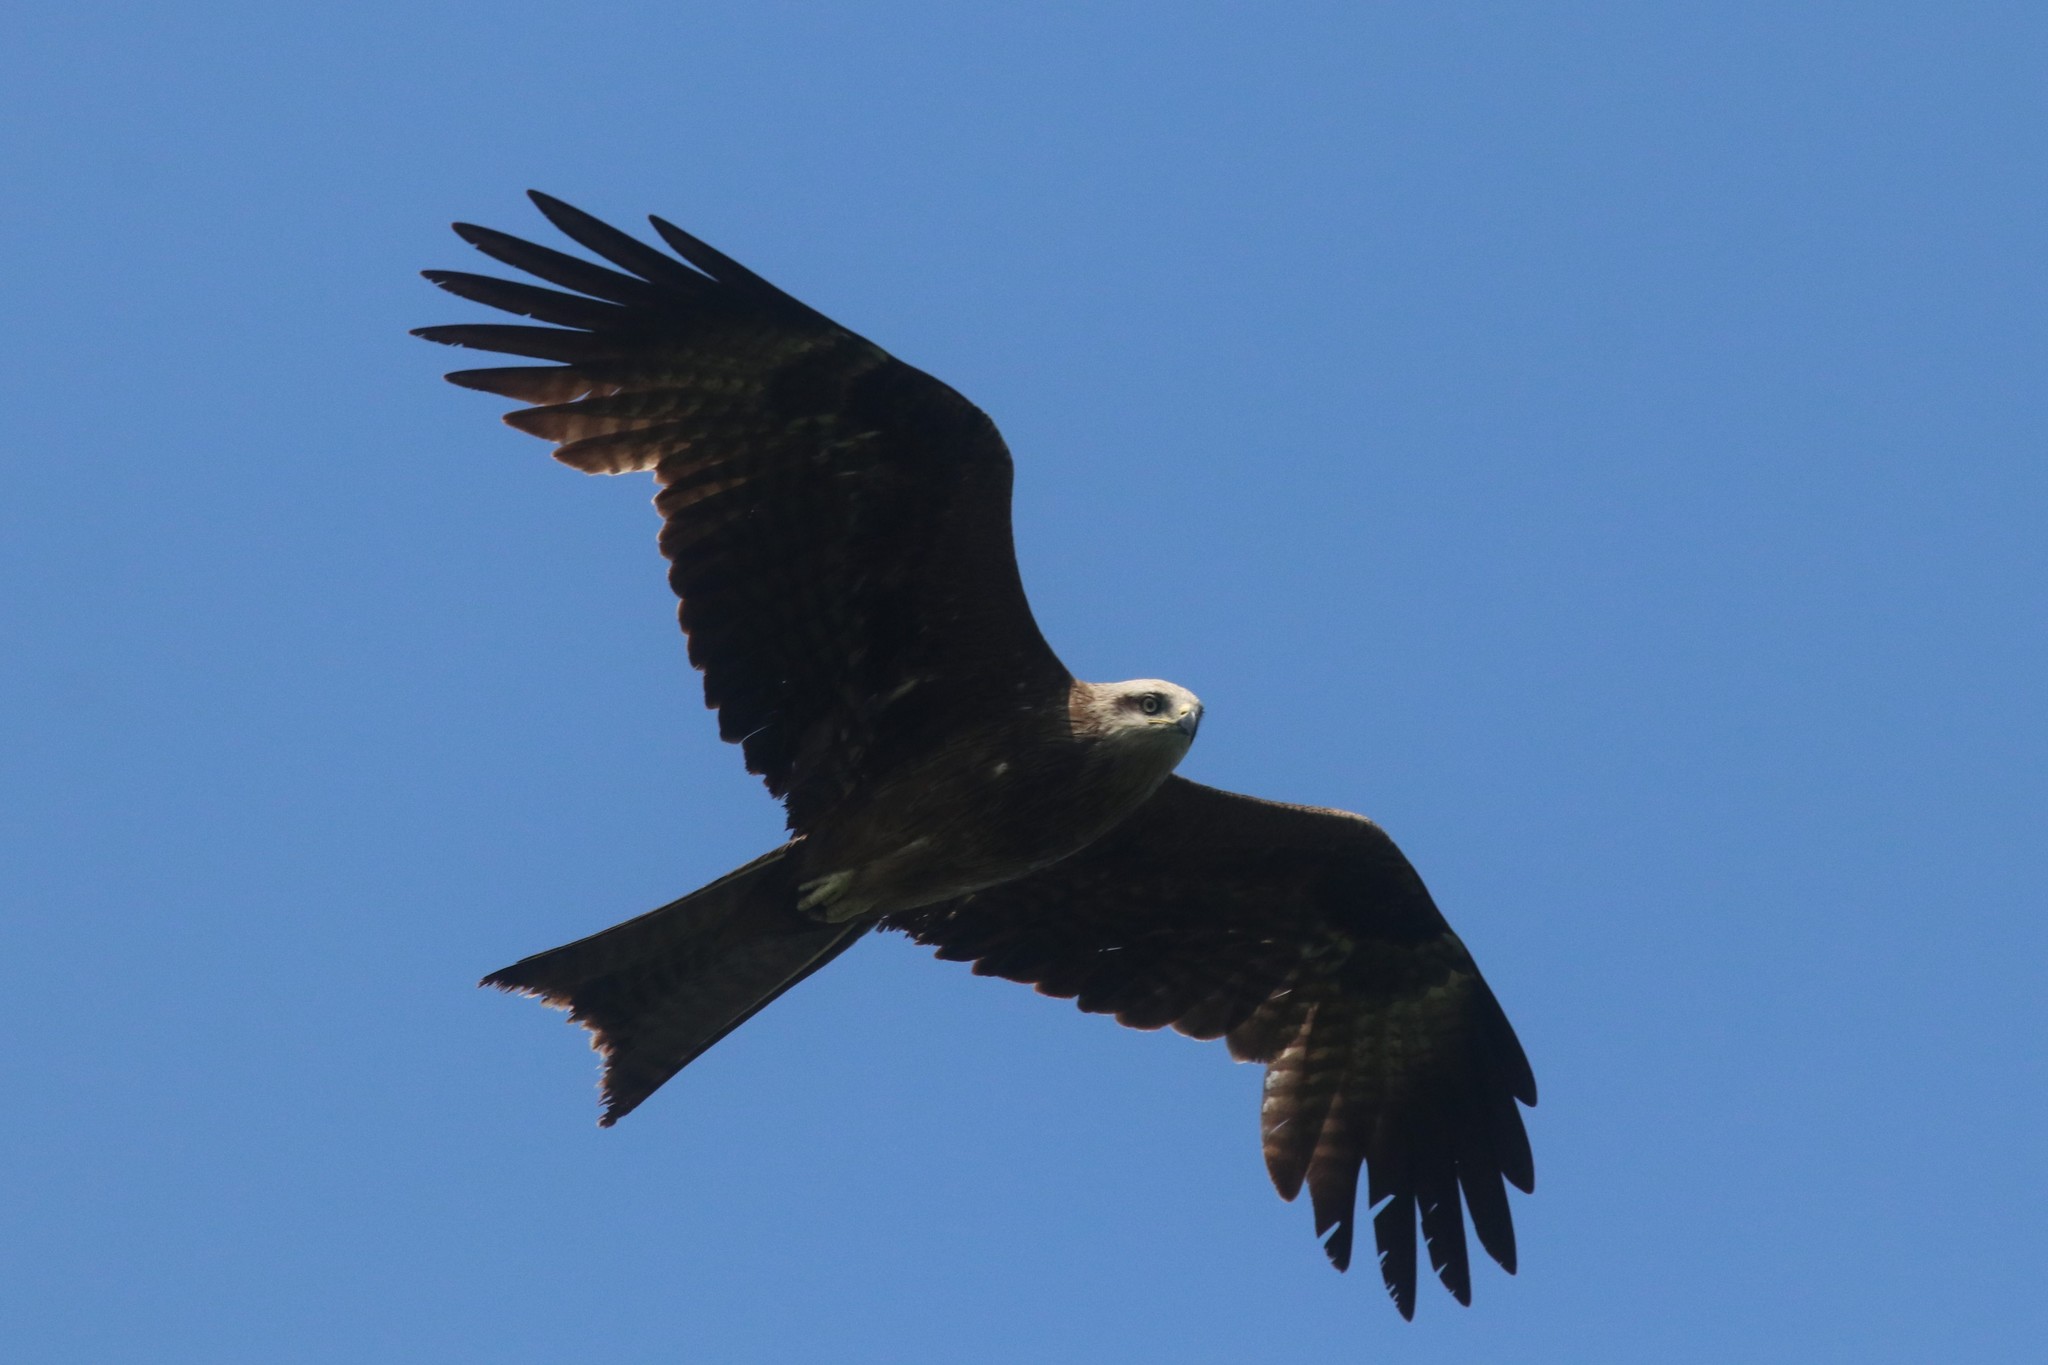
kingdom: Animalia
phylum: Chordata
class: Aves
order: Accipitriformes
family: Accipitridae
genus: Milvus
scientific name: Milvus migrans
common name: Black kite
